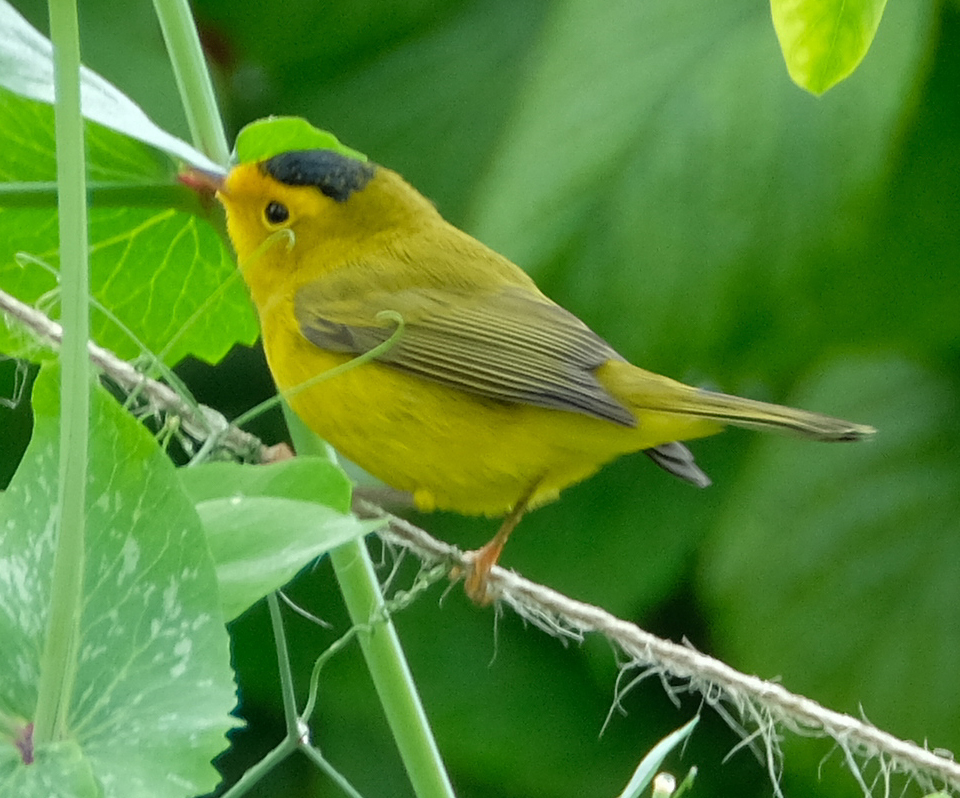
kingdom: Animalia
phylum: Chordata
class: Aves
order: Passeriformes
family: Parulidae
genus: Cardellina
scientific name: Cardellina pusilla
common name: Wilson's warbler
